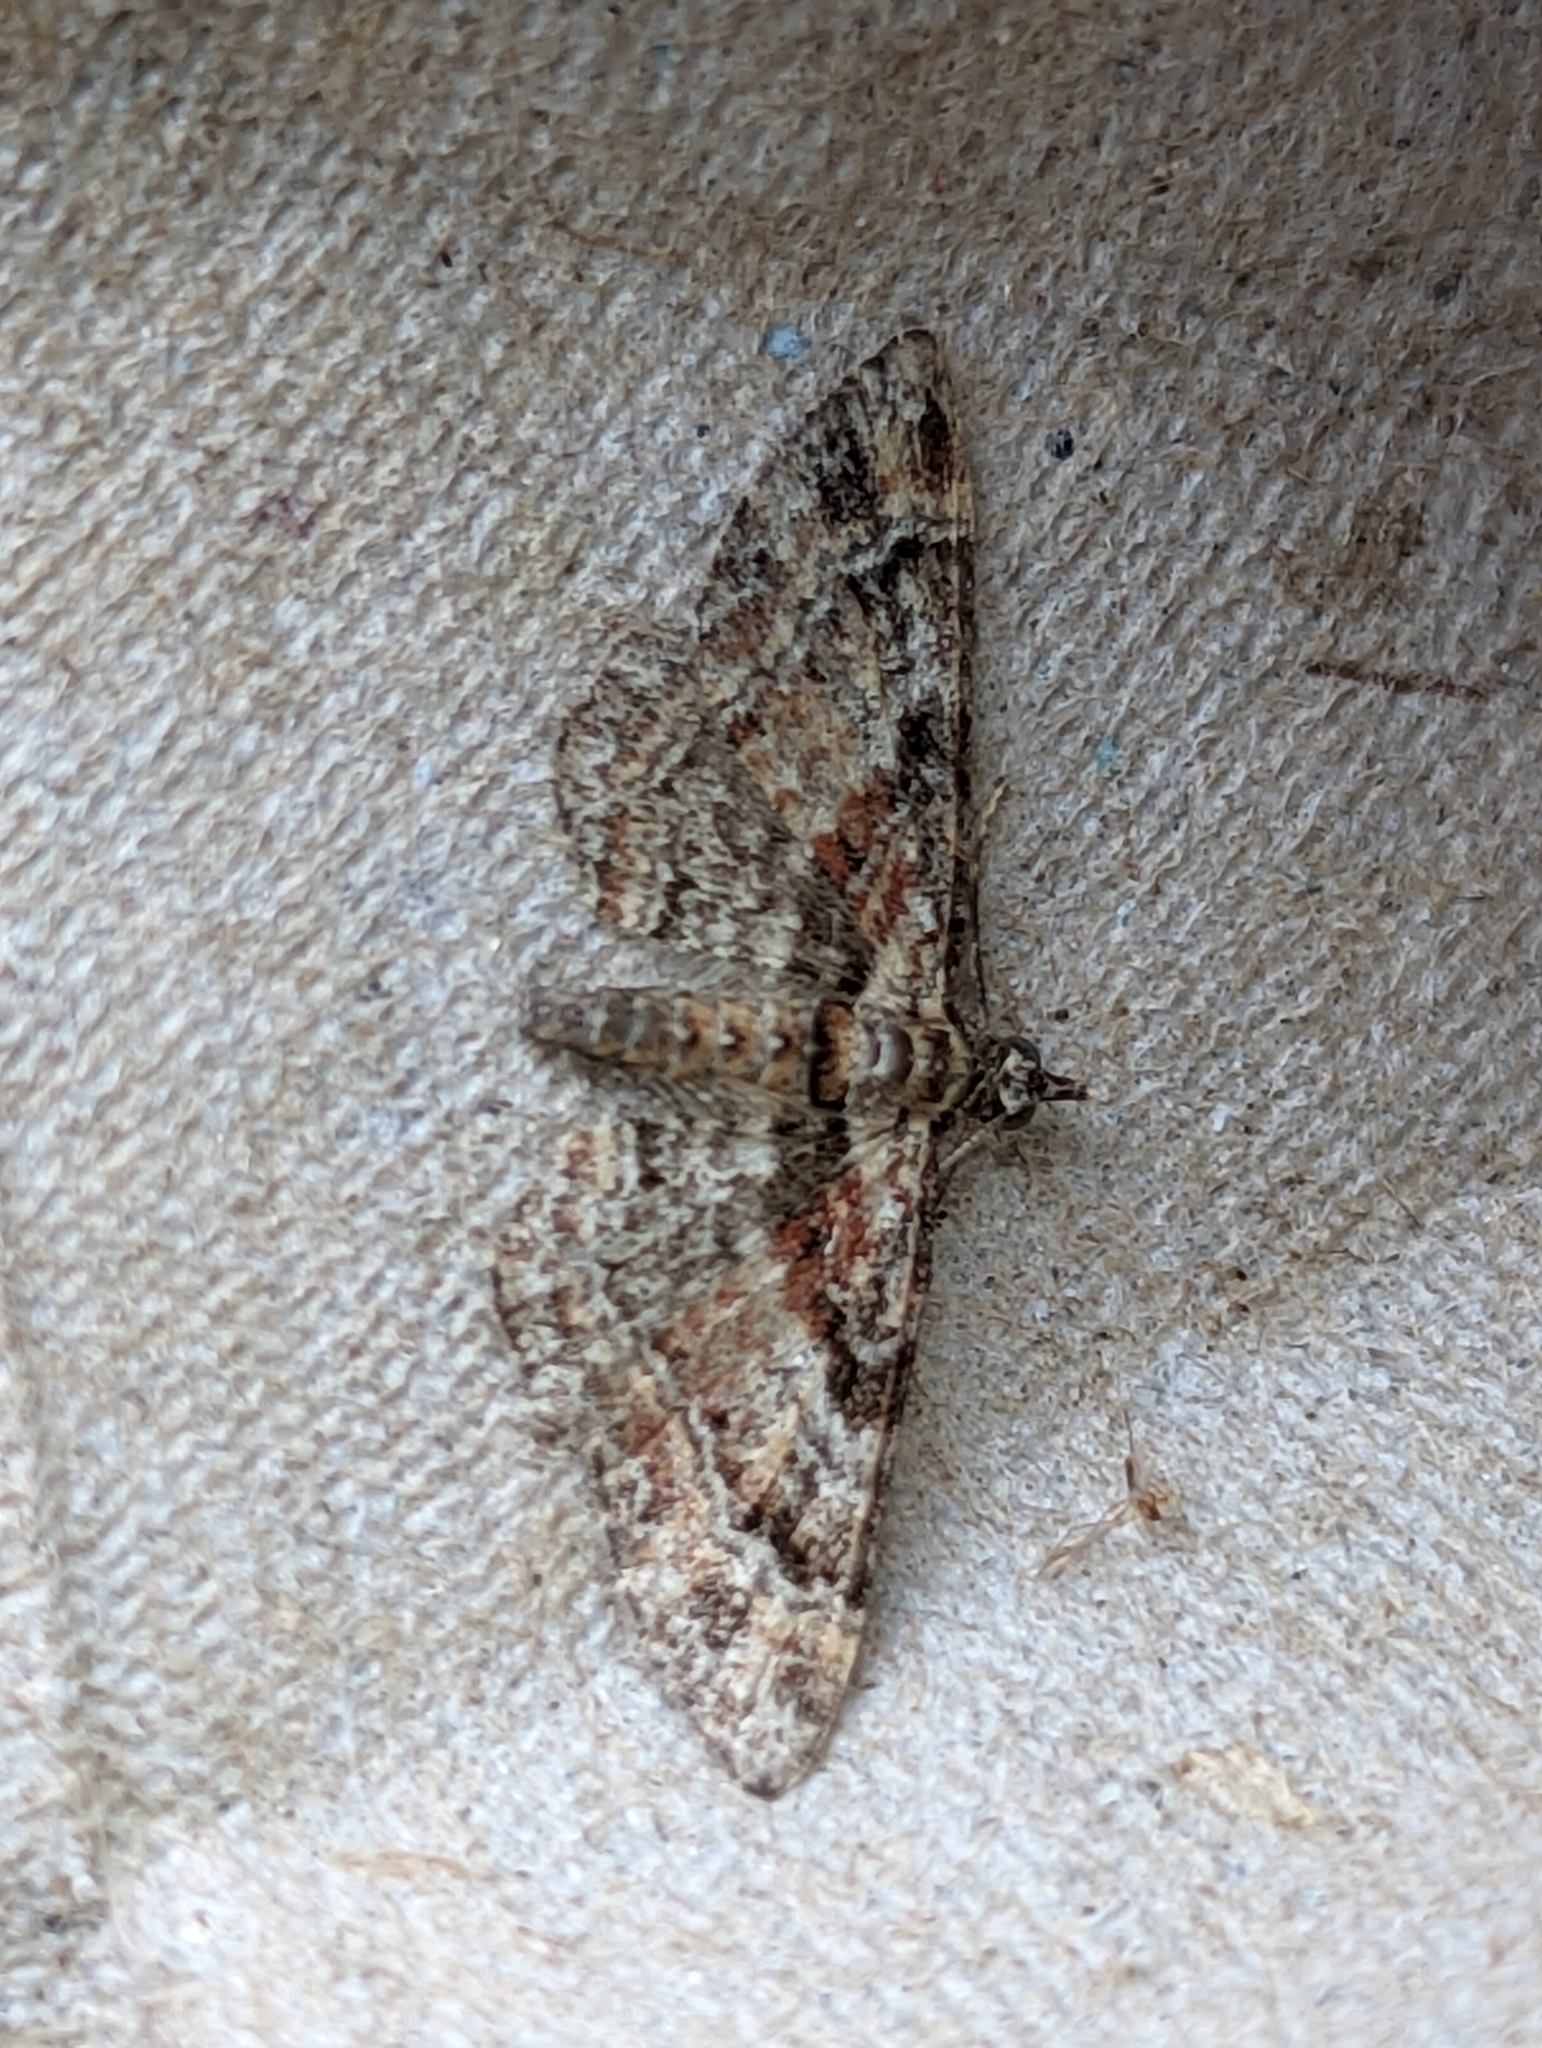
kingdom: Animalia
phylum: Arthropoda
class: Insecta
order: Lepidoptera
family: Geometridae
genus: Gymnoscelis
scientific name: Gymnoscelis rufifasciata
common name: Double-striped pug
